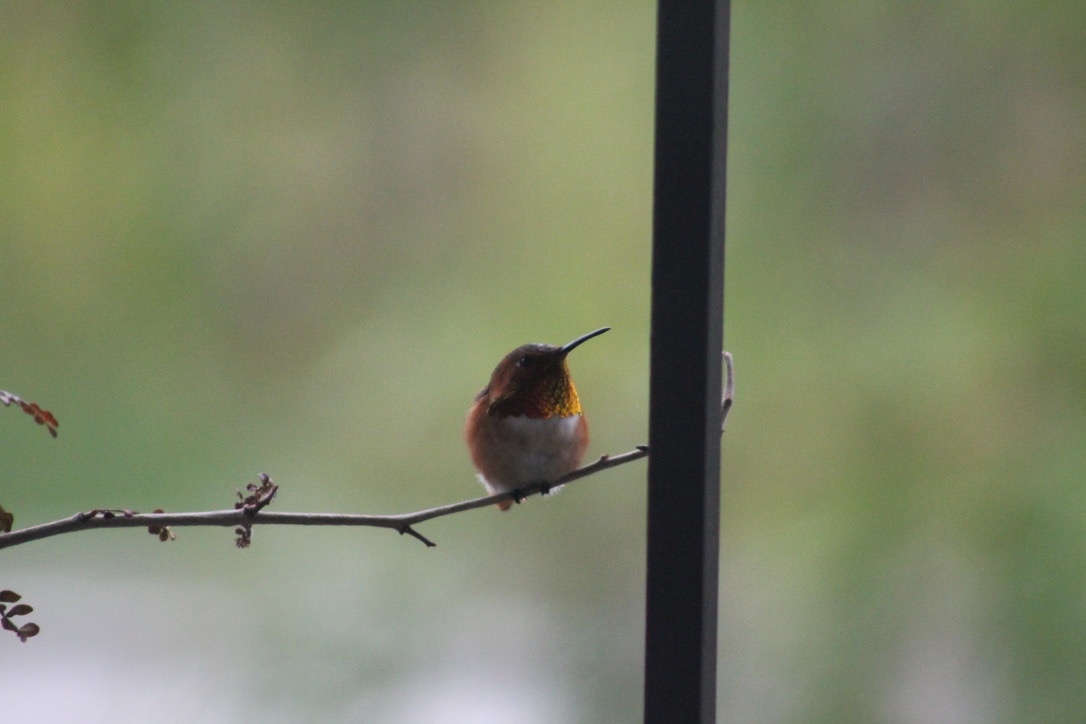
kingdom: Animalia
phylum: Chordata
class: Aves
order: Apodiformes
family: Trochilidae
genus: Selasphorus
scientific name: Selasphorus
